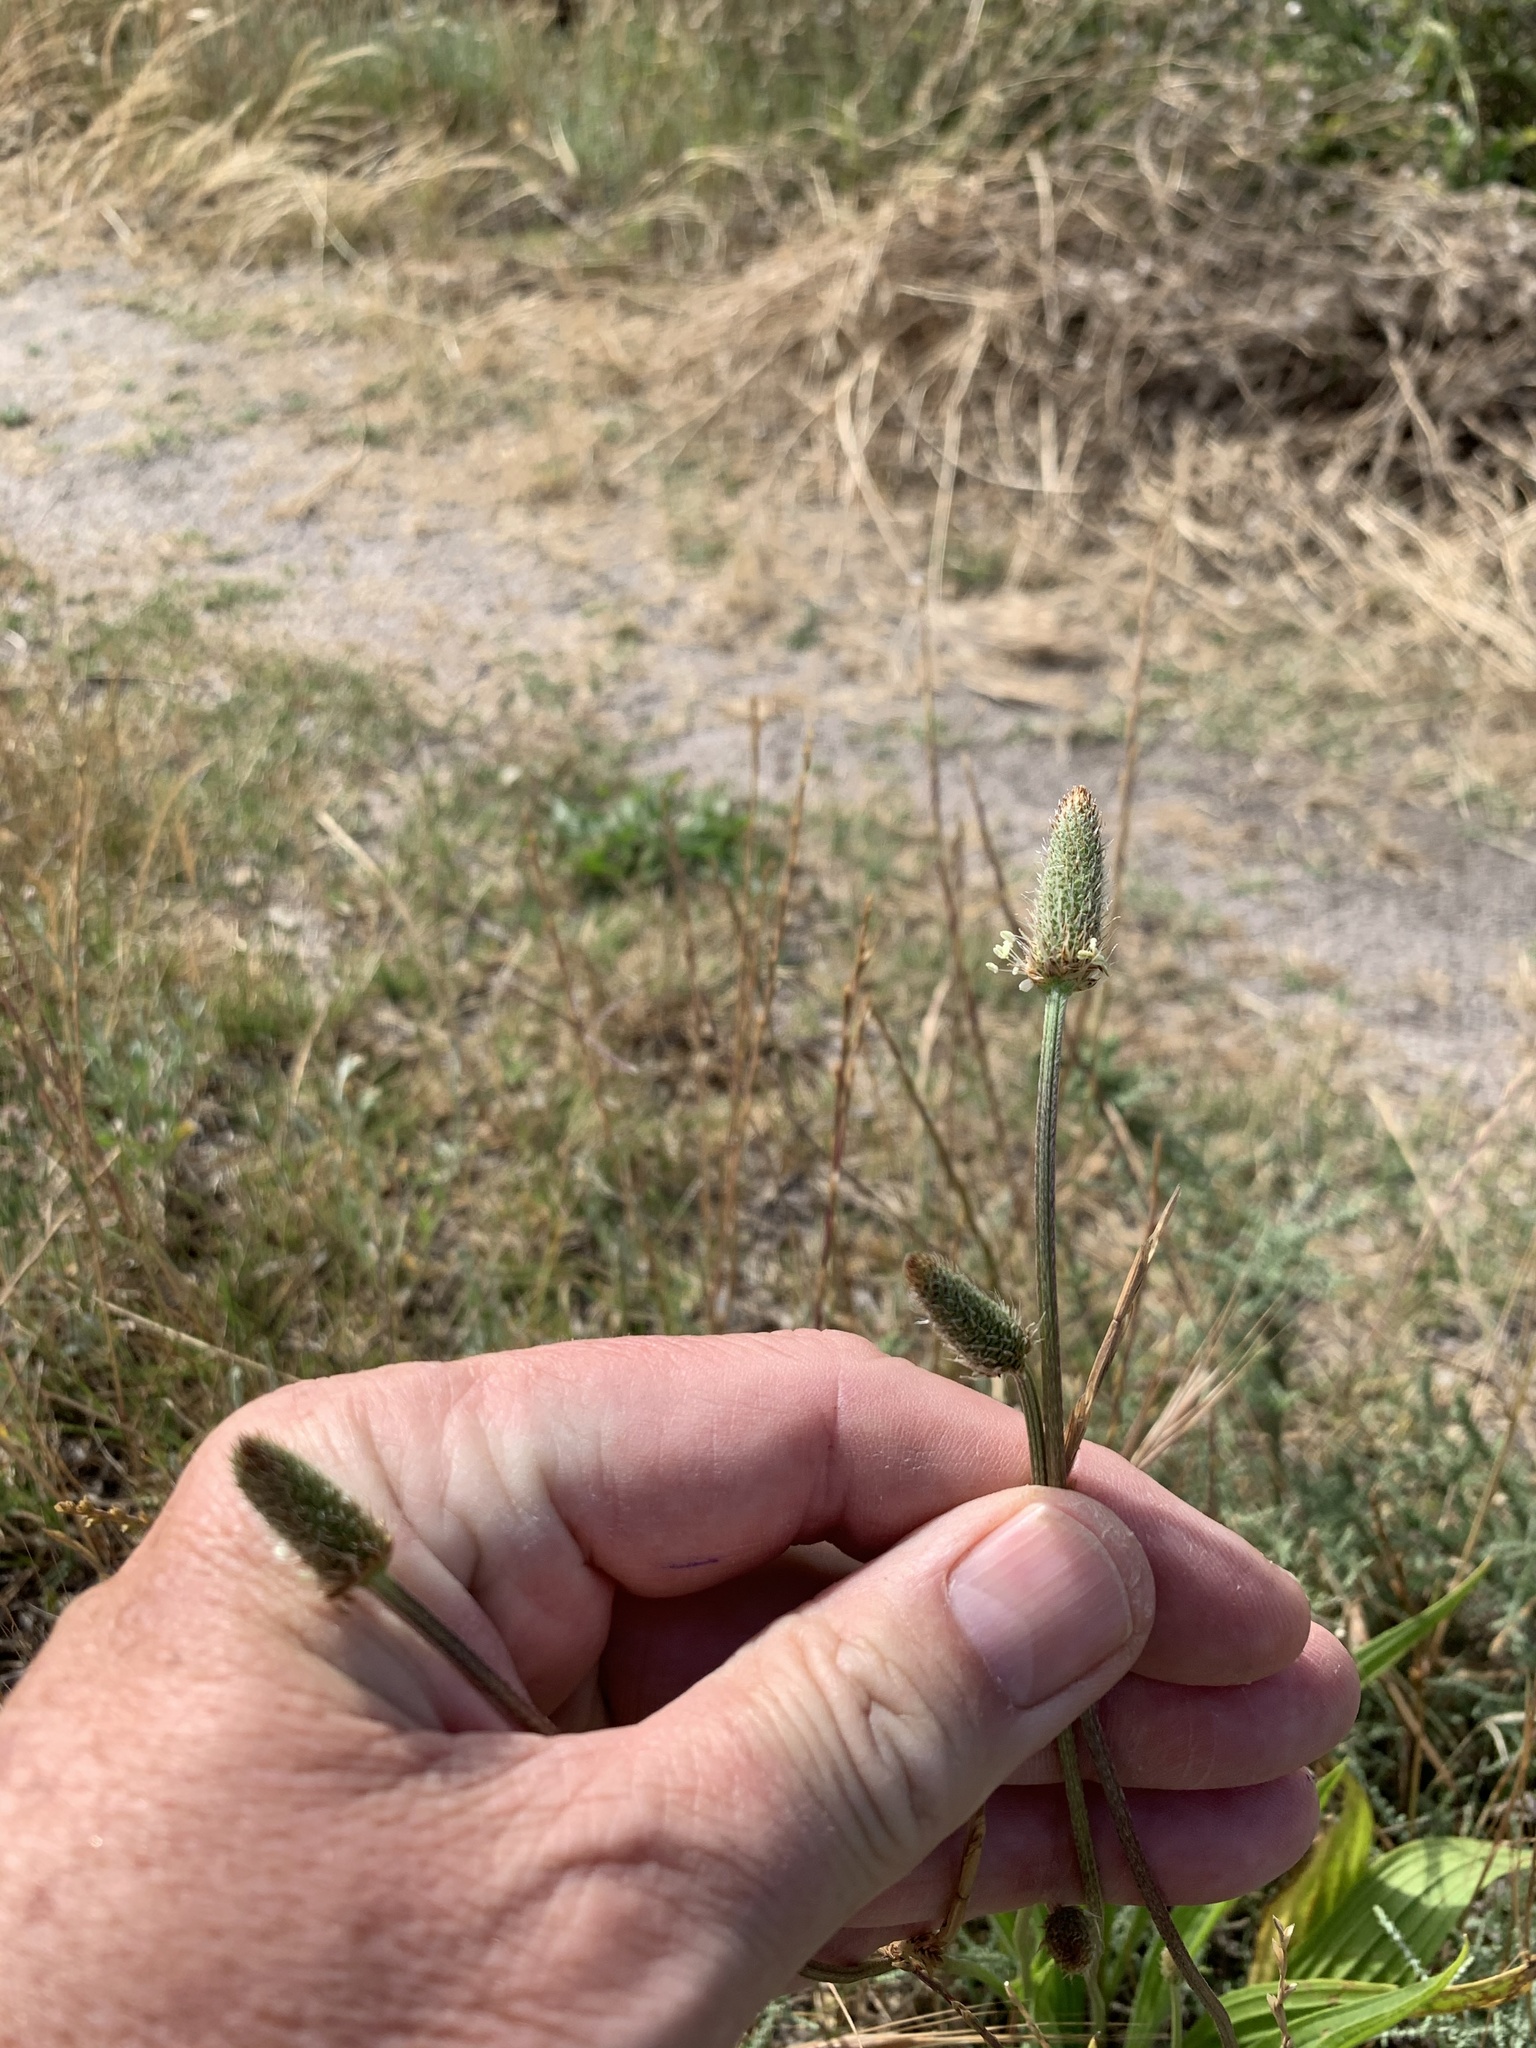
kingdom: Plantae
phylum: Tracheophyta
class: Magnoliopsida
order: Lamiales
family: Plantaginaceae
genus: Plantago
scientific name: Plantago lanceolata
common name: Ribwort plantain
